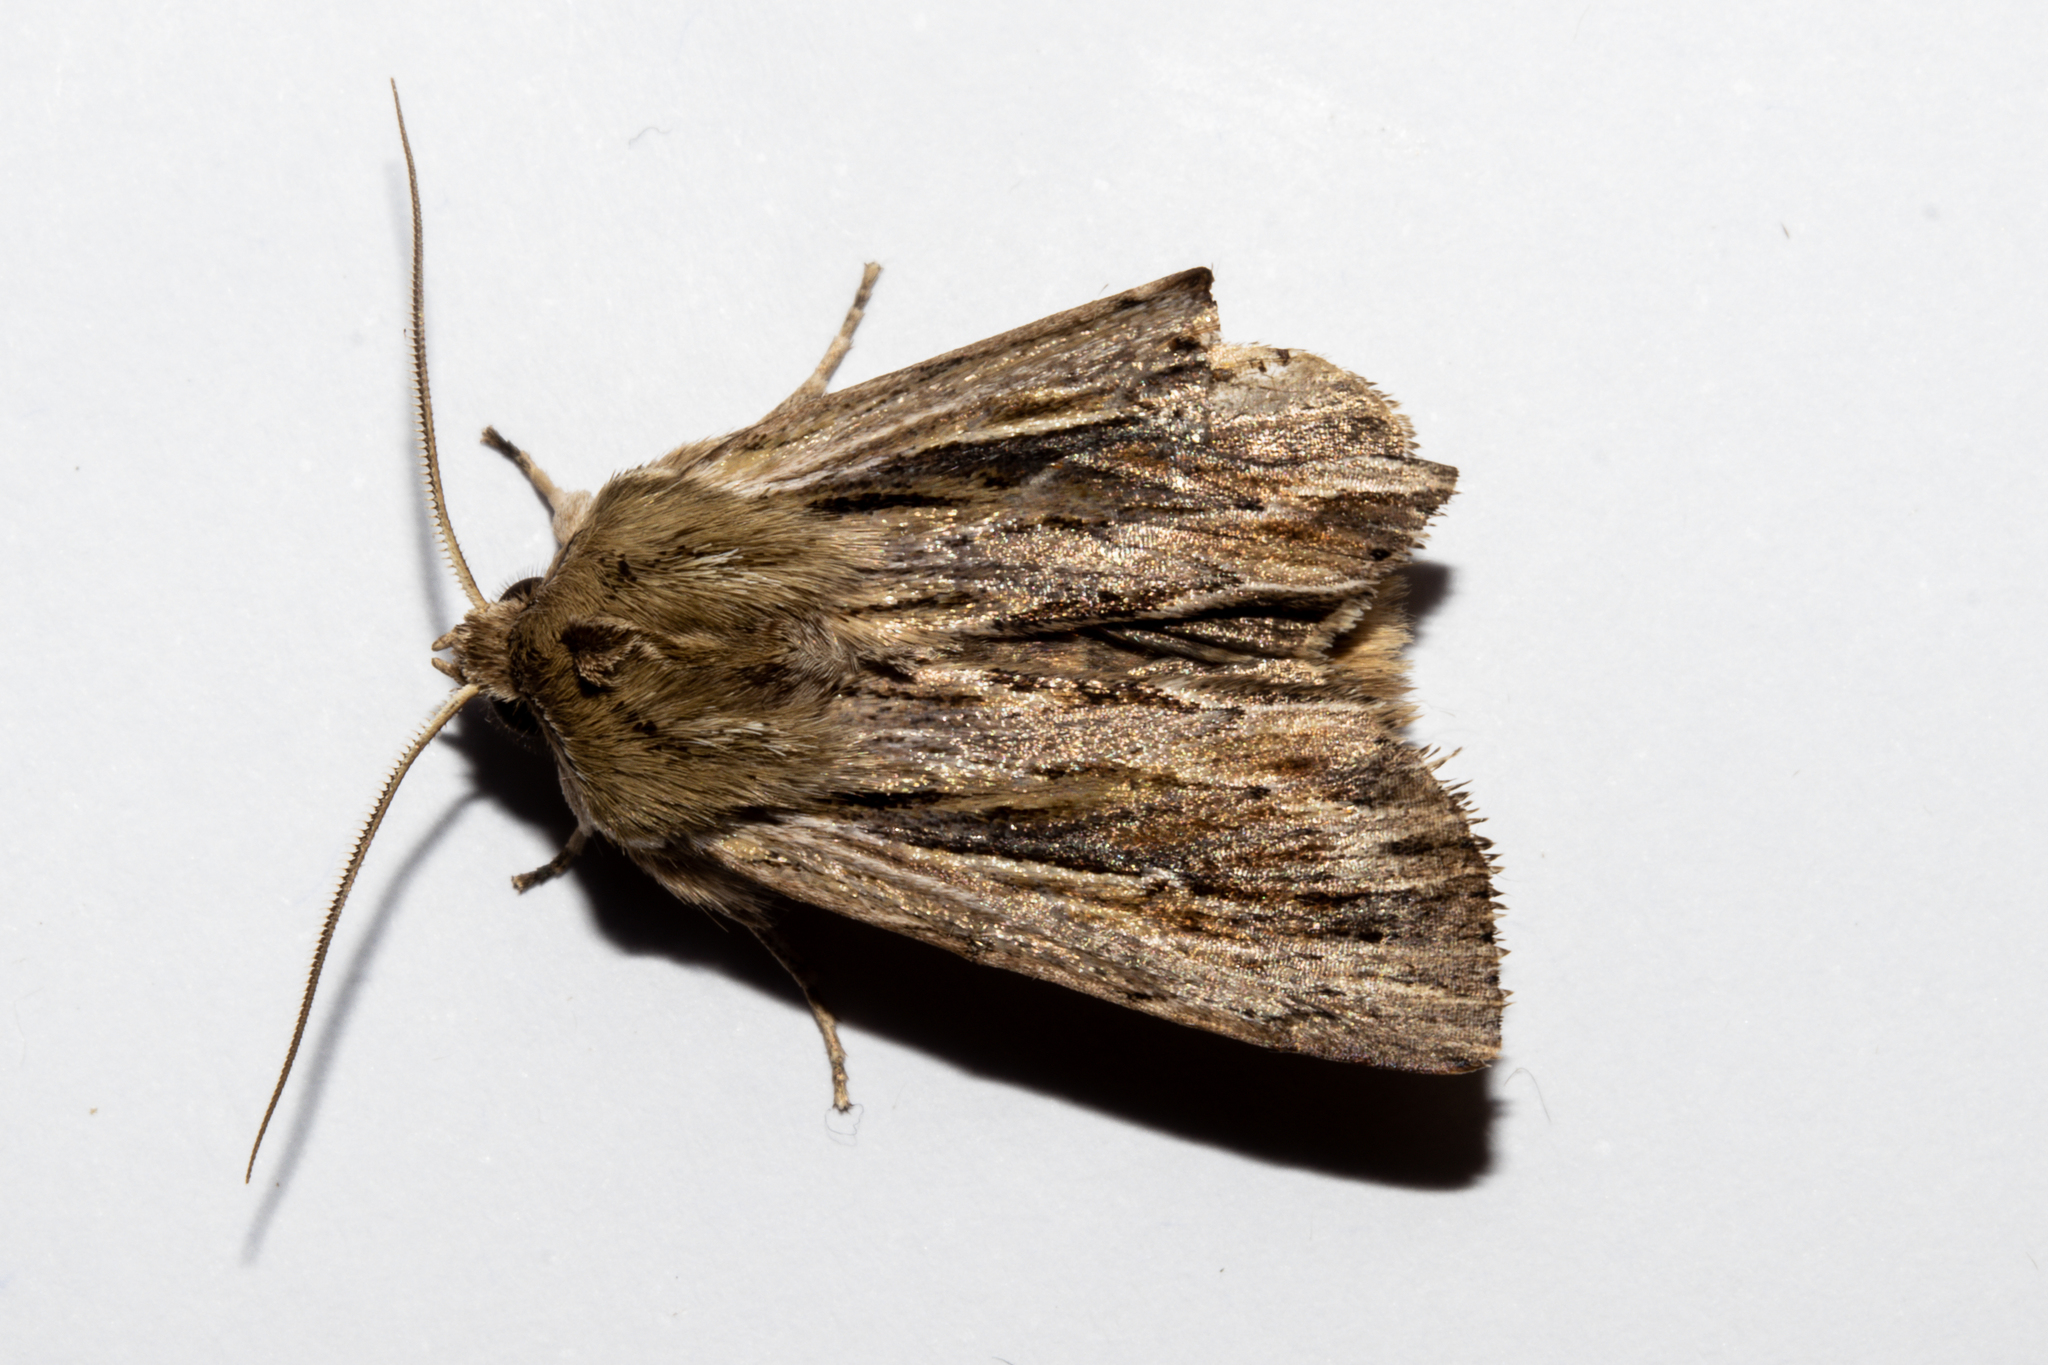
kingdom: Animalia
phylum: Arthropoda
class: Insecta
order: Lepidoptera
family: Noctuidae
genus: Persectania
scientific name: Persectania aversa
